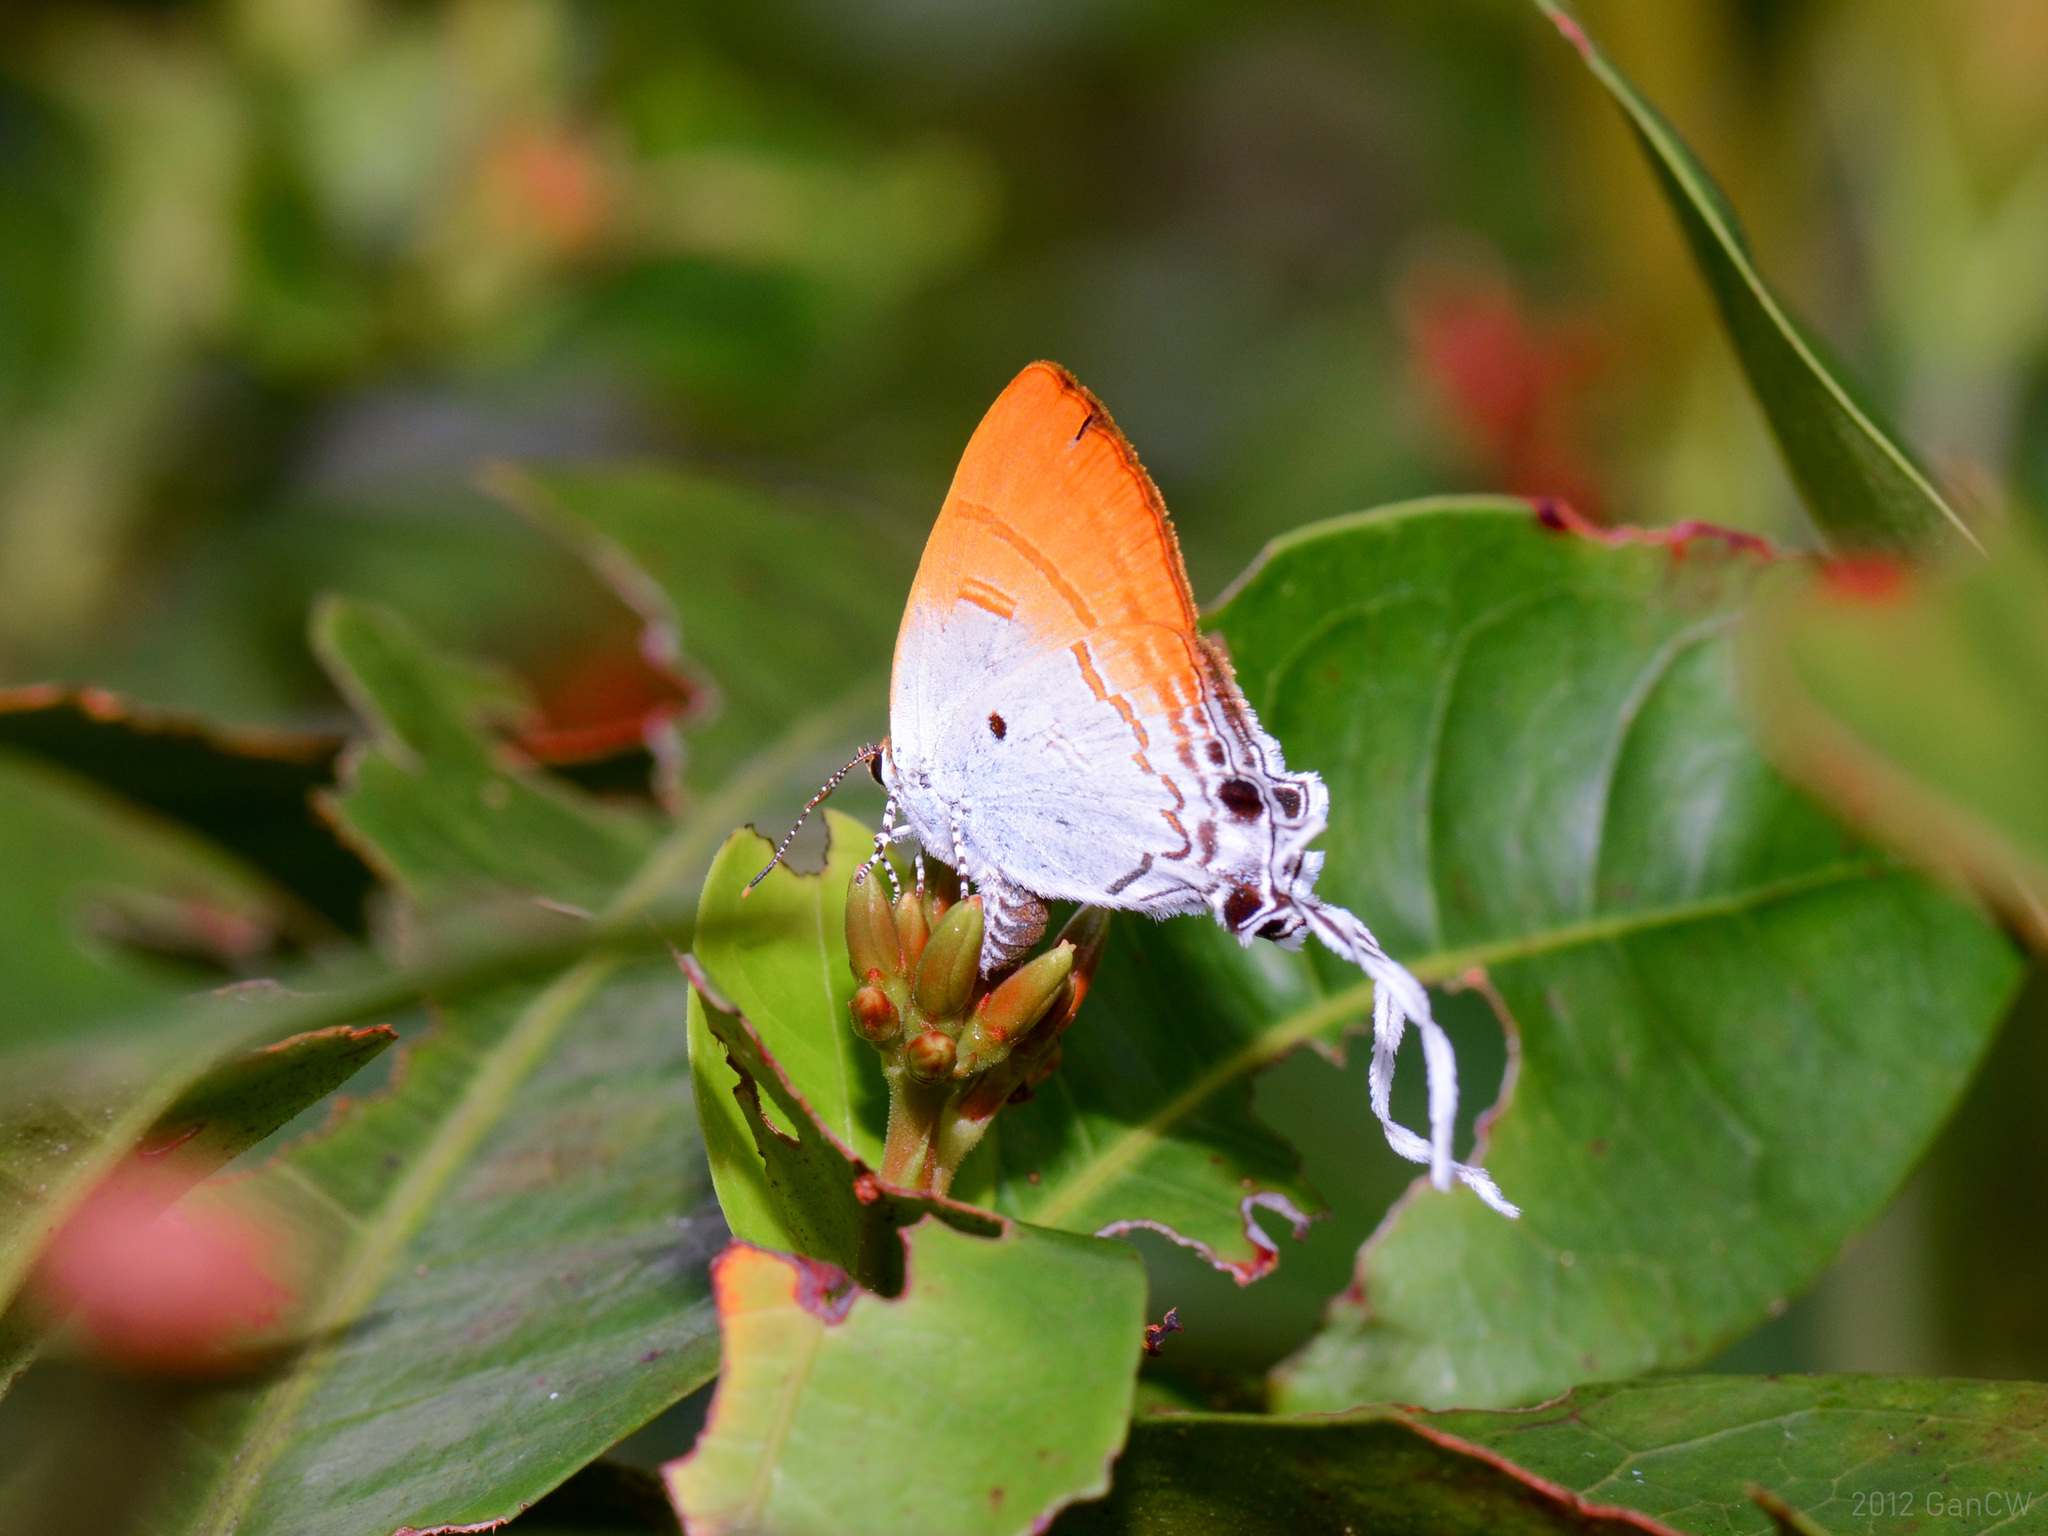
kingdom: Animalia
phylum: Arthropoda
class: Insecta
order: Lepidoptera
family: Lycaenidae
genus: Zeltus
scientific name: Zeltus amasa
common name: Fluffy tit
